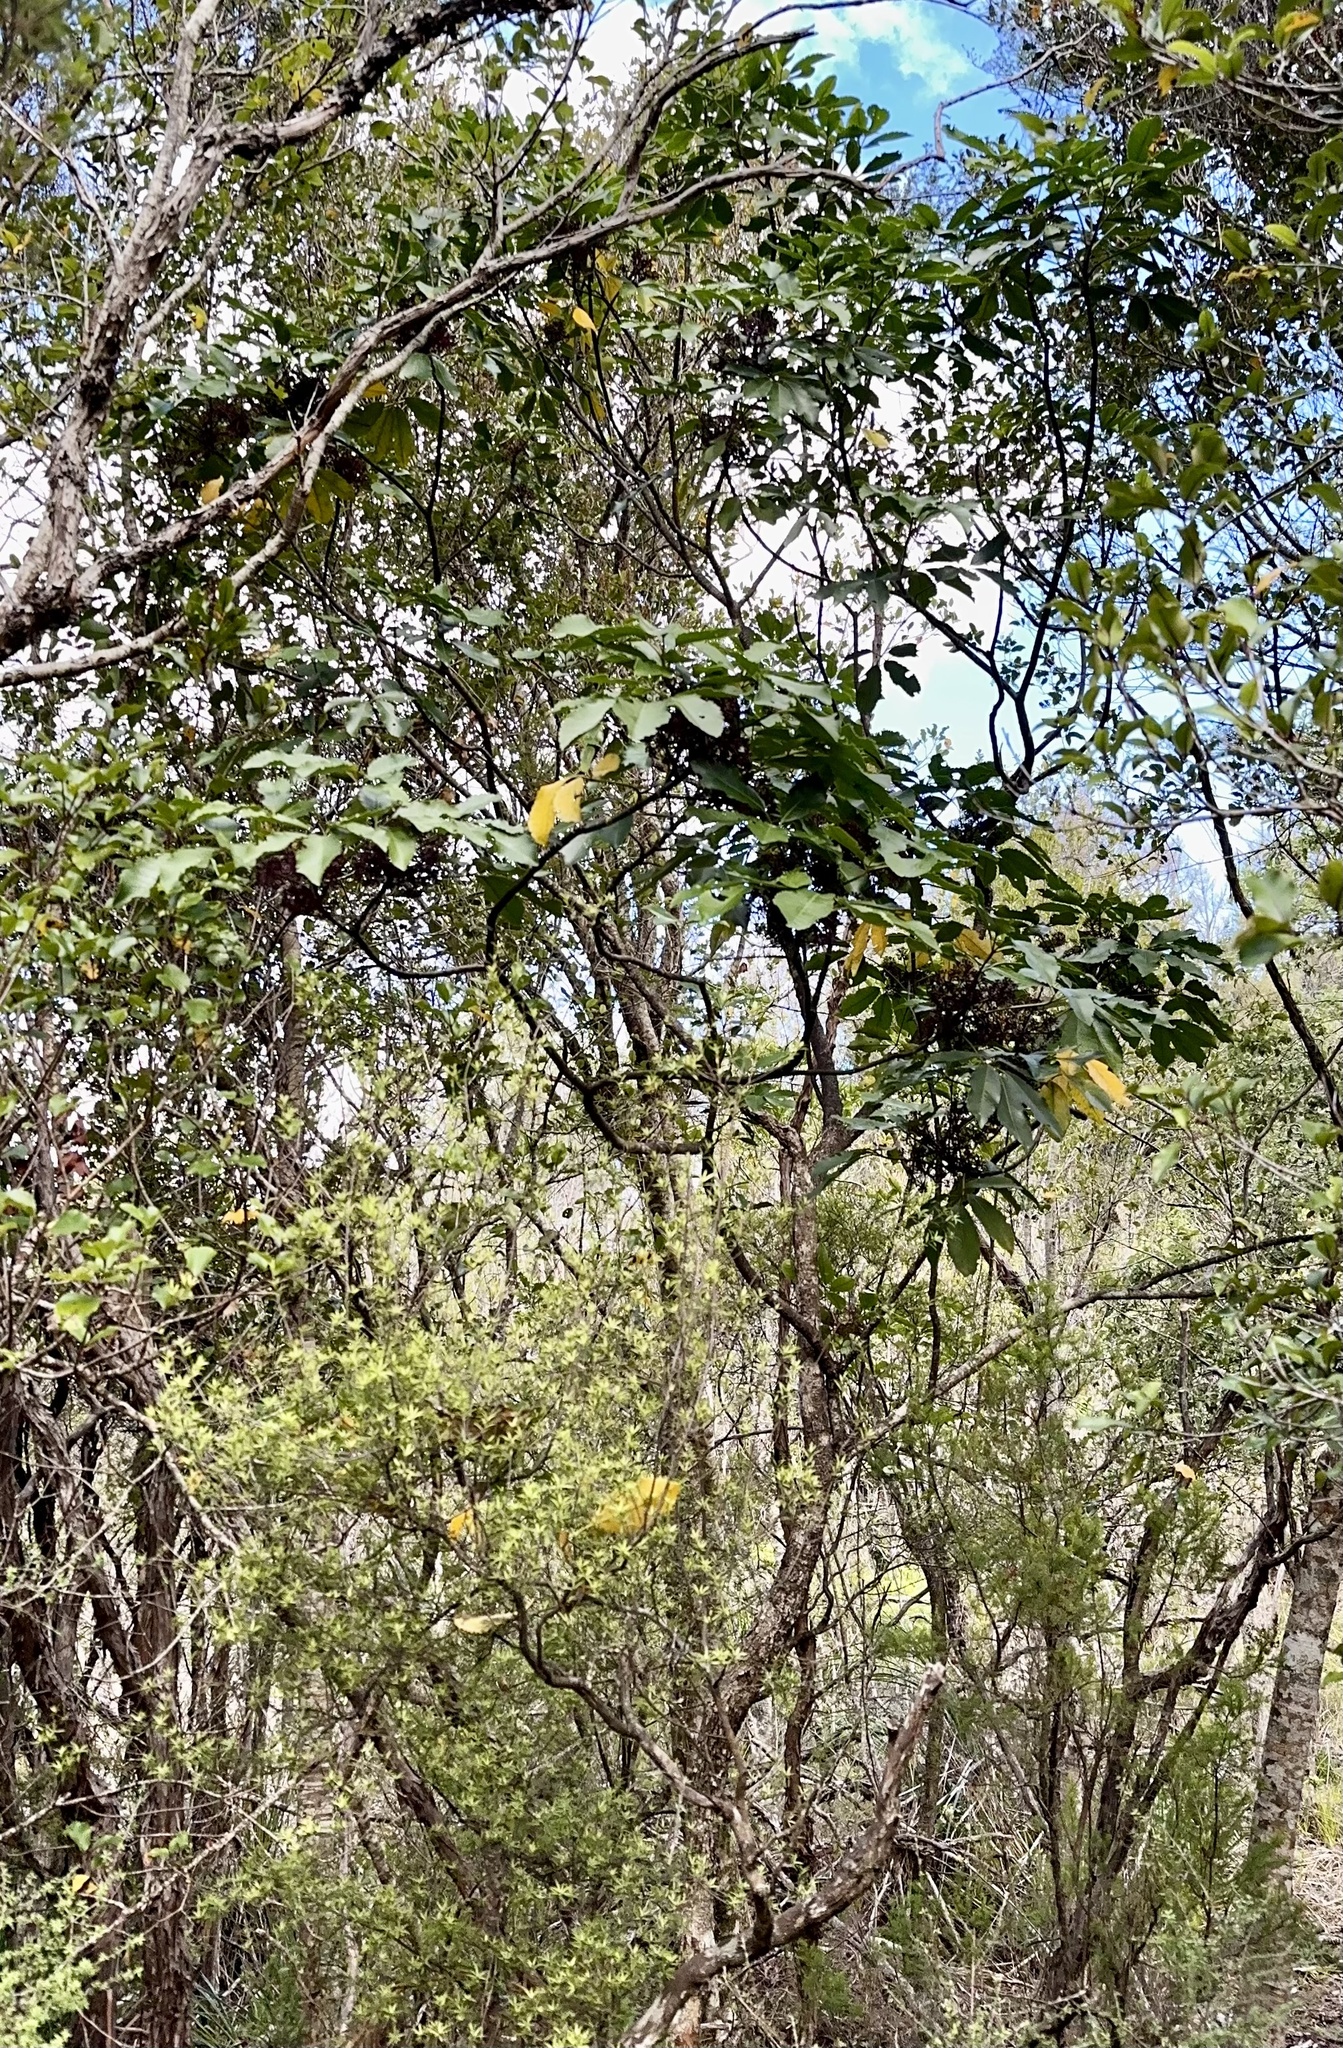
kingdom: Plantae
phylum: Tracheophyta
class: Magnoliopsida
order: Apiales
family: Araliaceae
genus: Neopanax
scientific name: Neopanax arboreus
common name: Five-fingers
